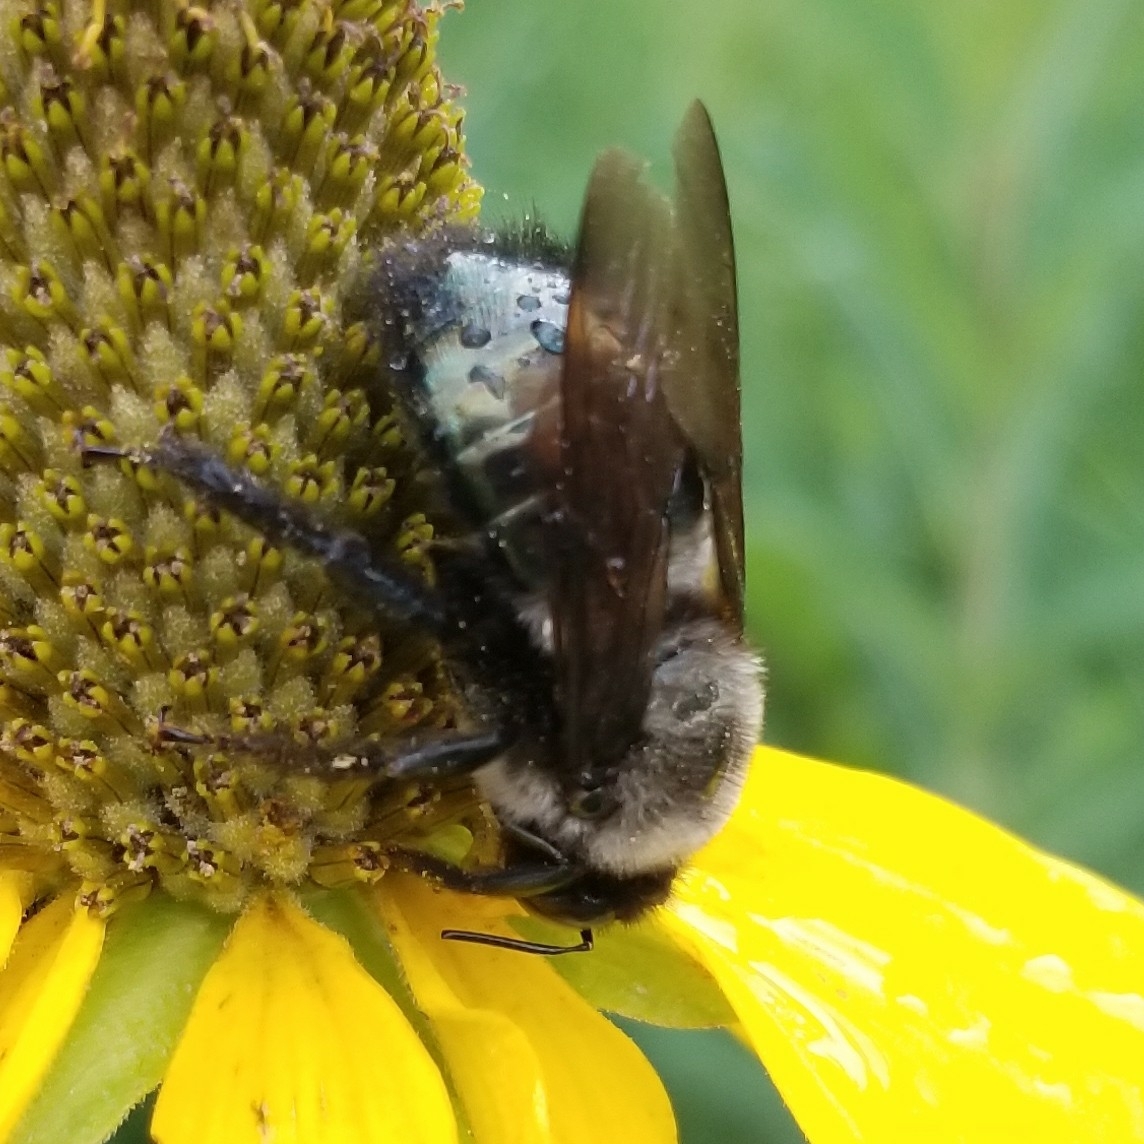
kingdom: Animalia
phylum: Arthropoda
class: Insecta
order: Hymenoptera
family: Apidae
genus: Xylocopa
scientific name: Xylocopa californica
